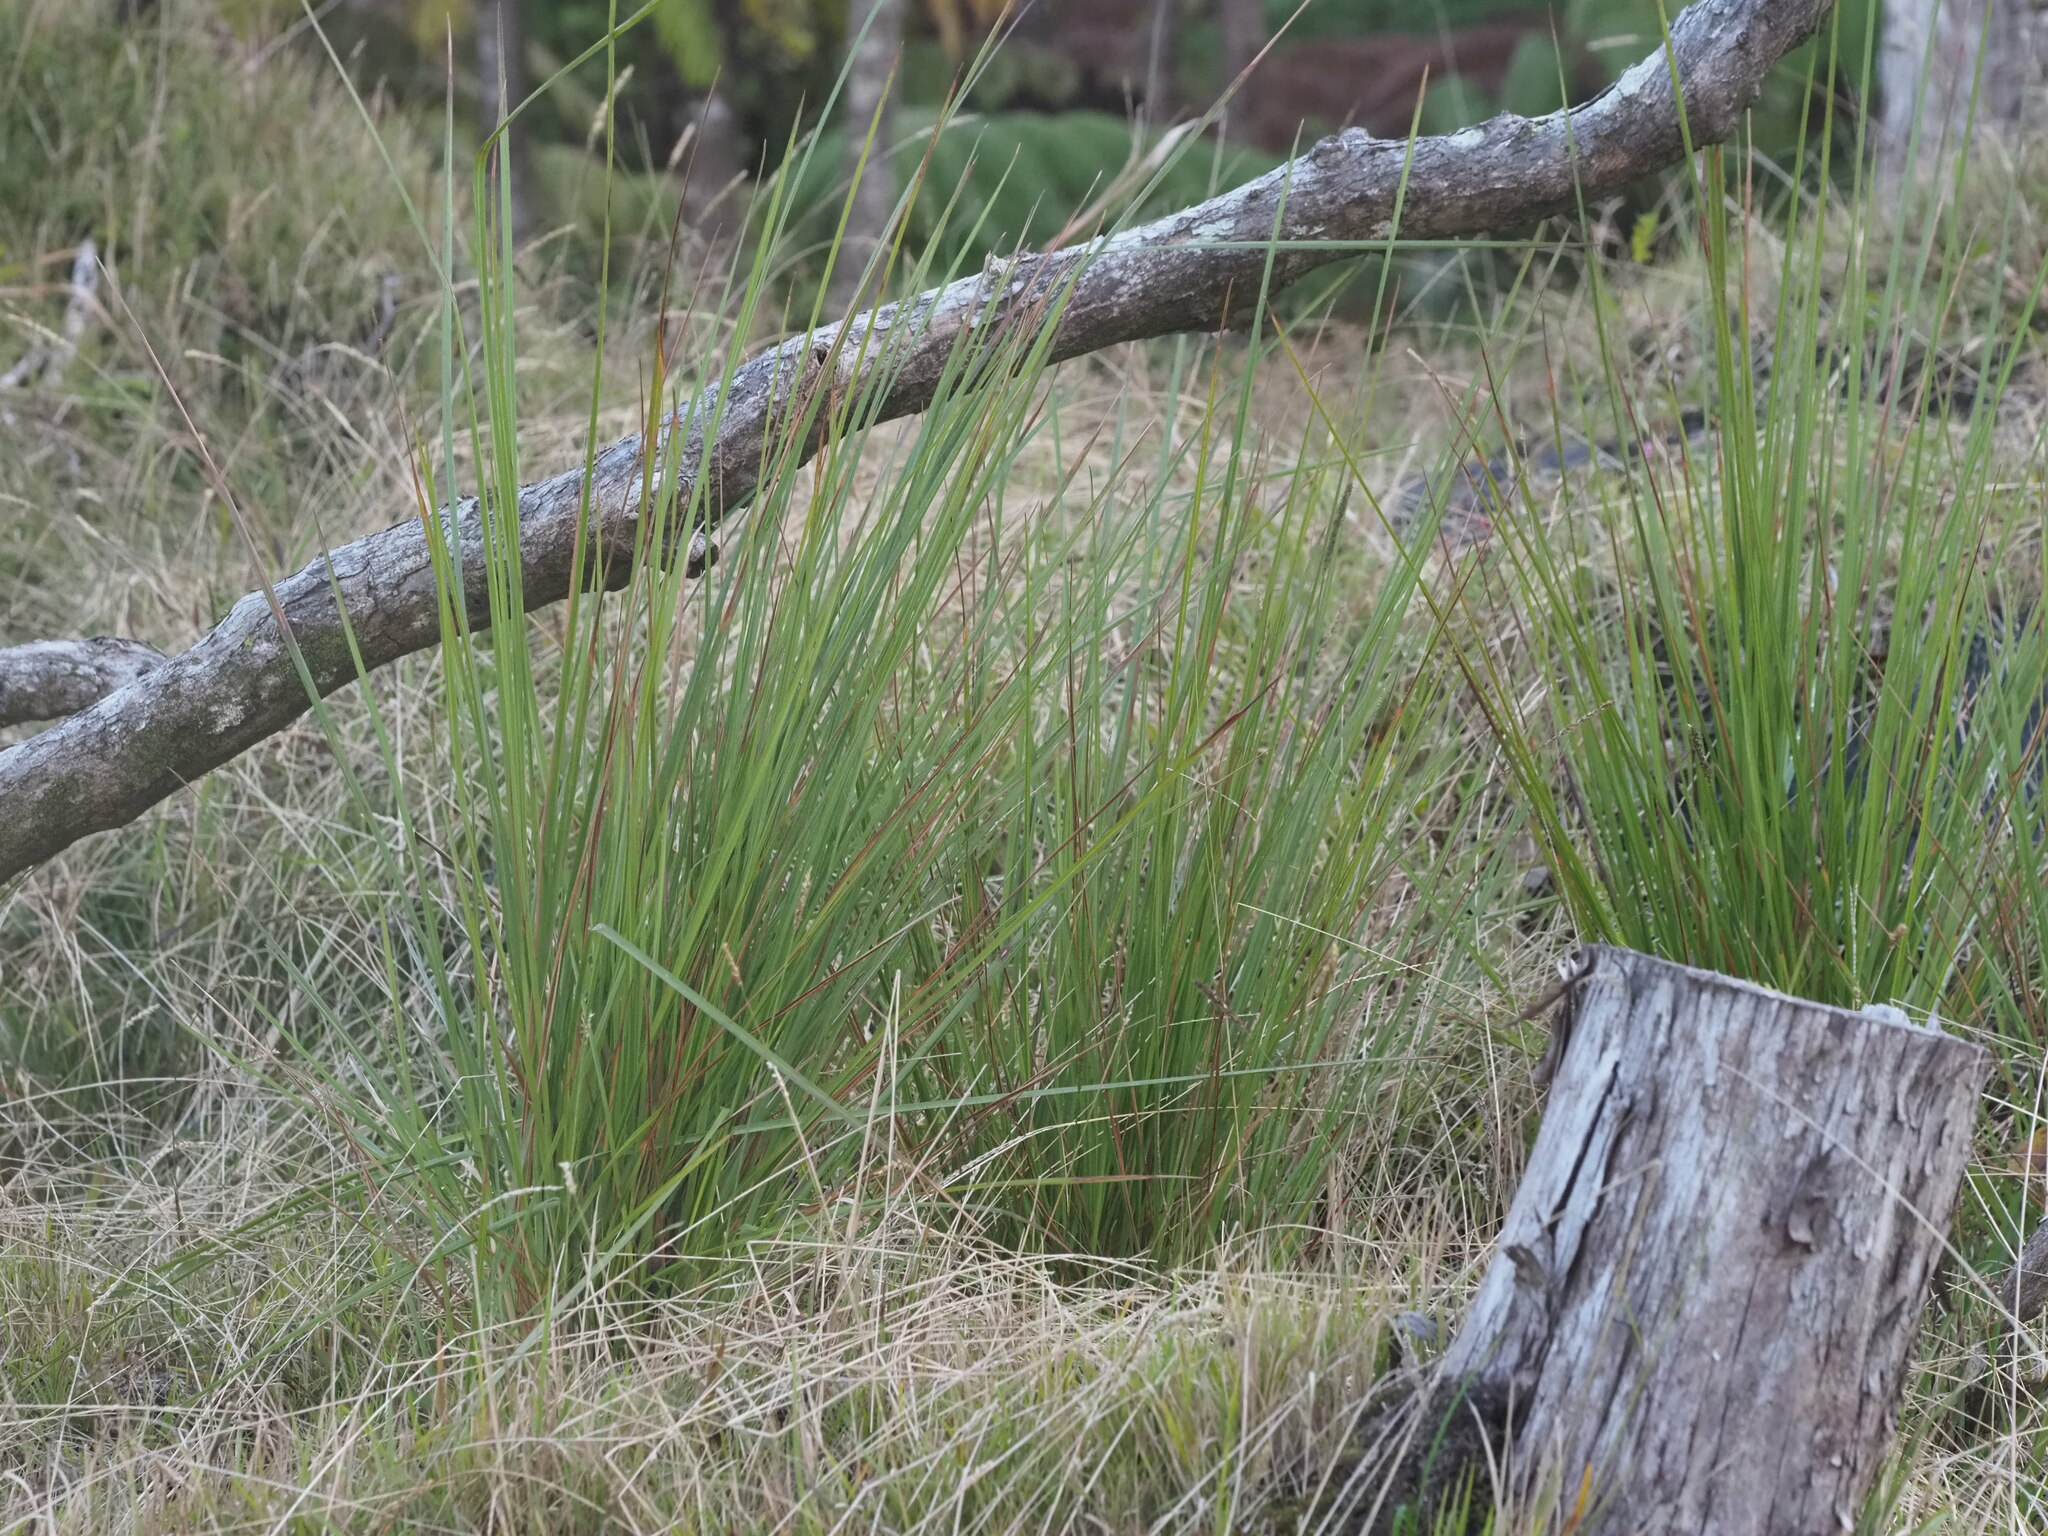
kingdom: Plantae
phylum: Tracheophyta
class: Liliopsida
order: Poales
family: Poaceae
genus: Andropogon
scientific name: Andropogon bicornis
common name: West indian foxtail grass
